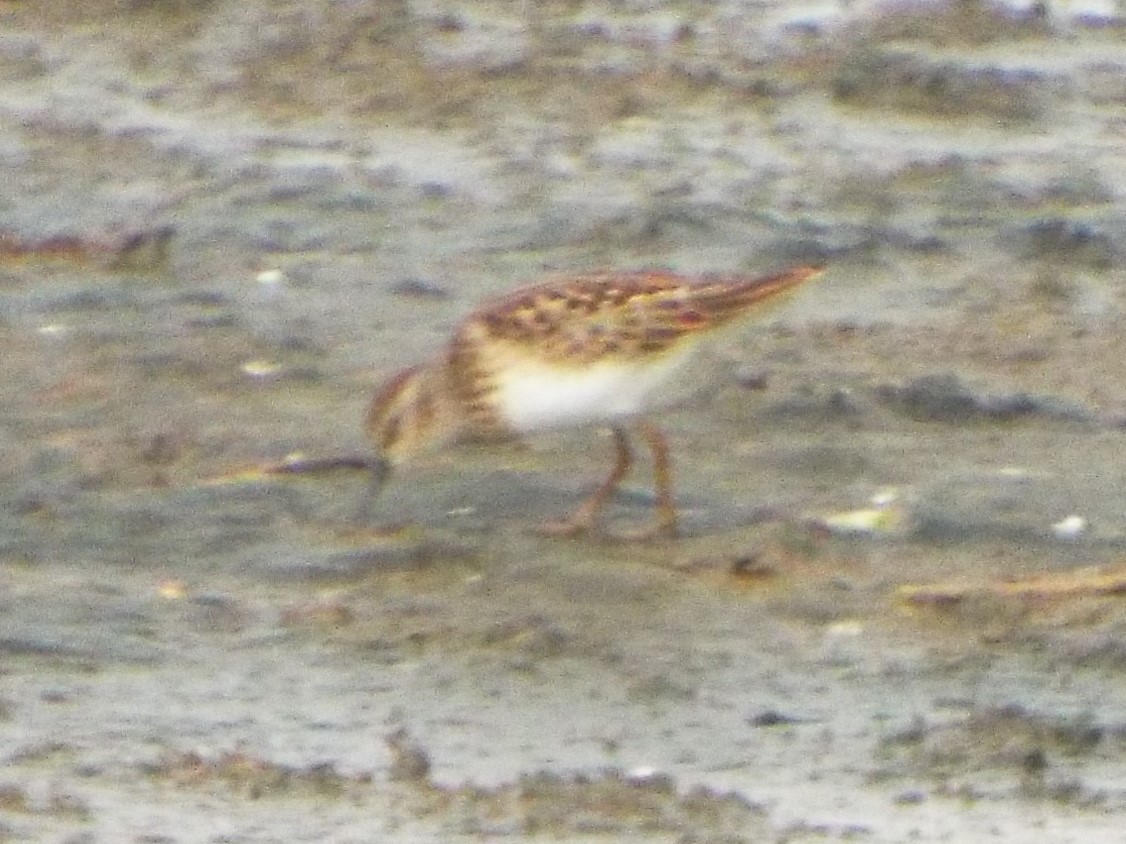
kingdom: Animalia
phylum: Chordata
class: Aves
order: Charadriiformes
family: Scolopacidae
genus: Calidris
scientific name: Calidris minutilla
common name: Least sandpiper
